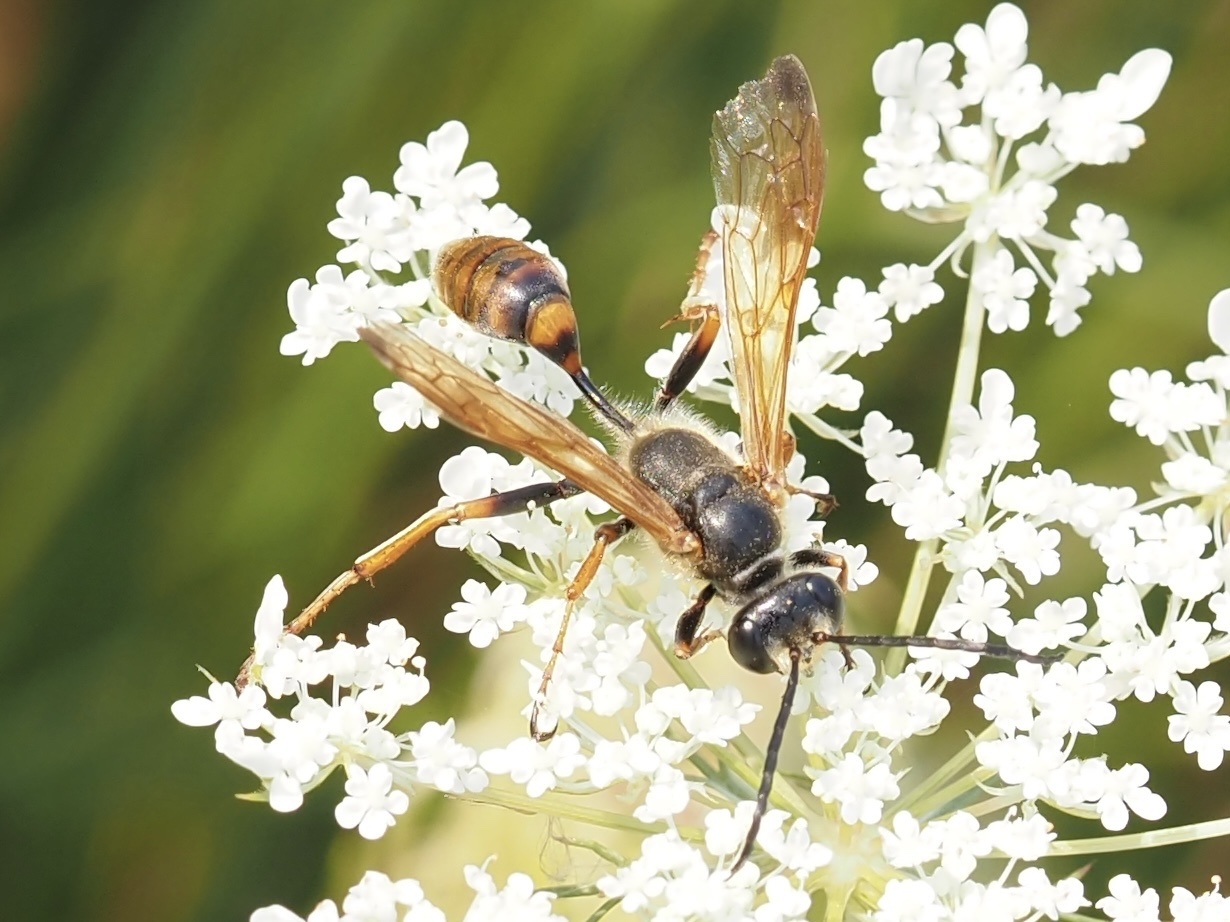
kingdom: Animalia
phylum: Arthropoda
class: Insecta
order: Hymenoptera
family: Sphecidae
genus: Isodontia
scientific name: Isodontia elegans
